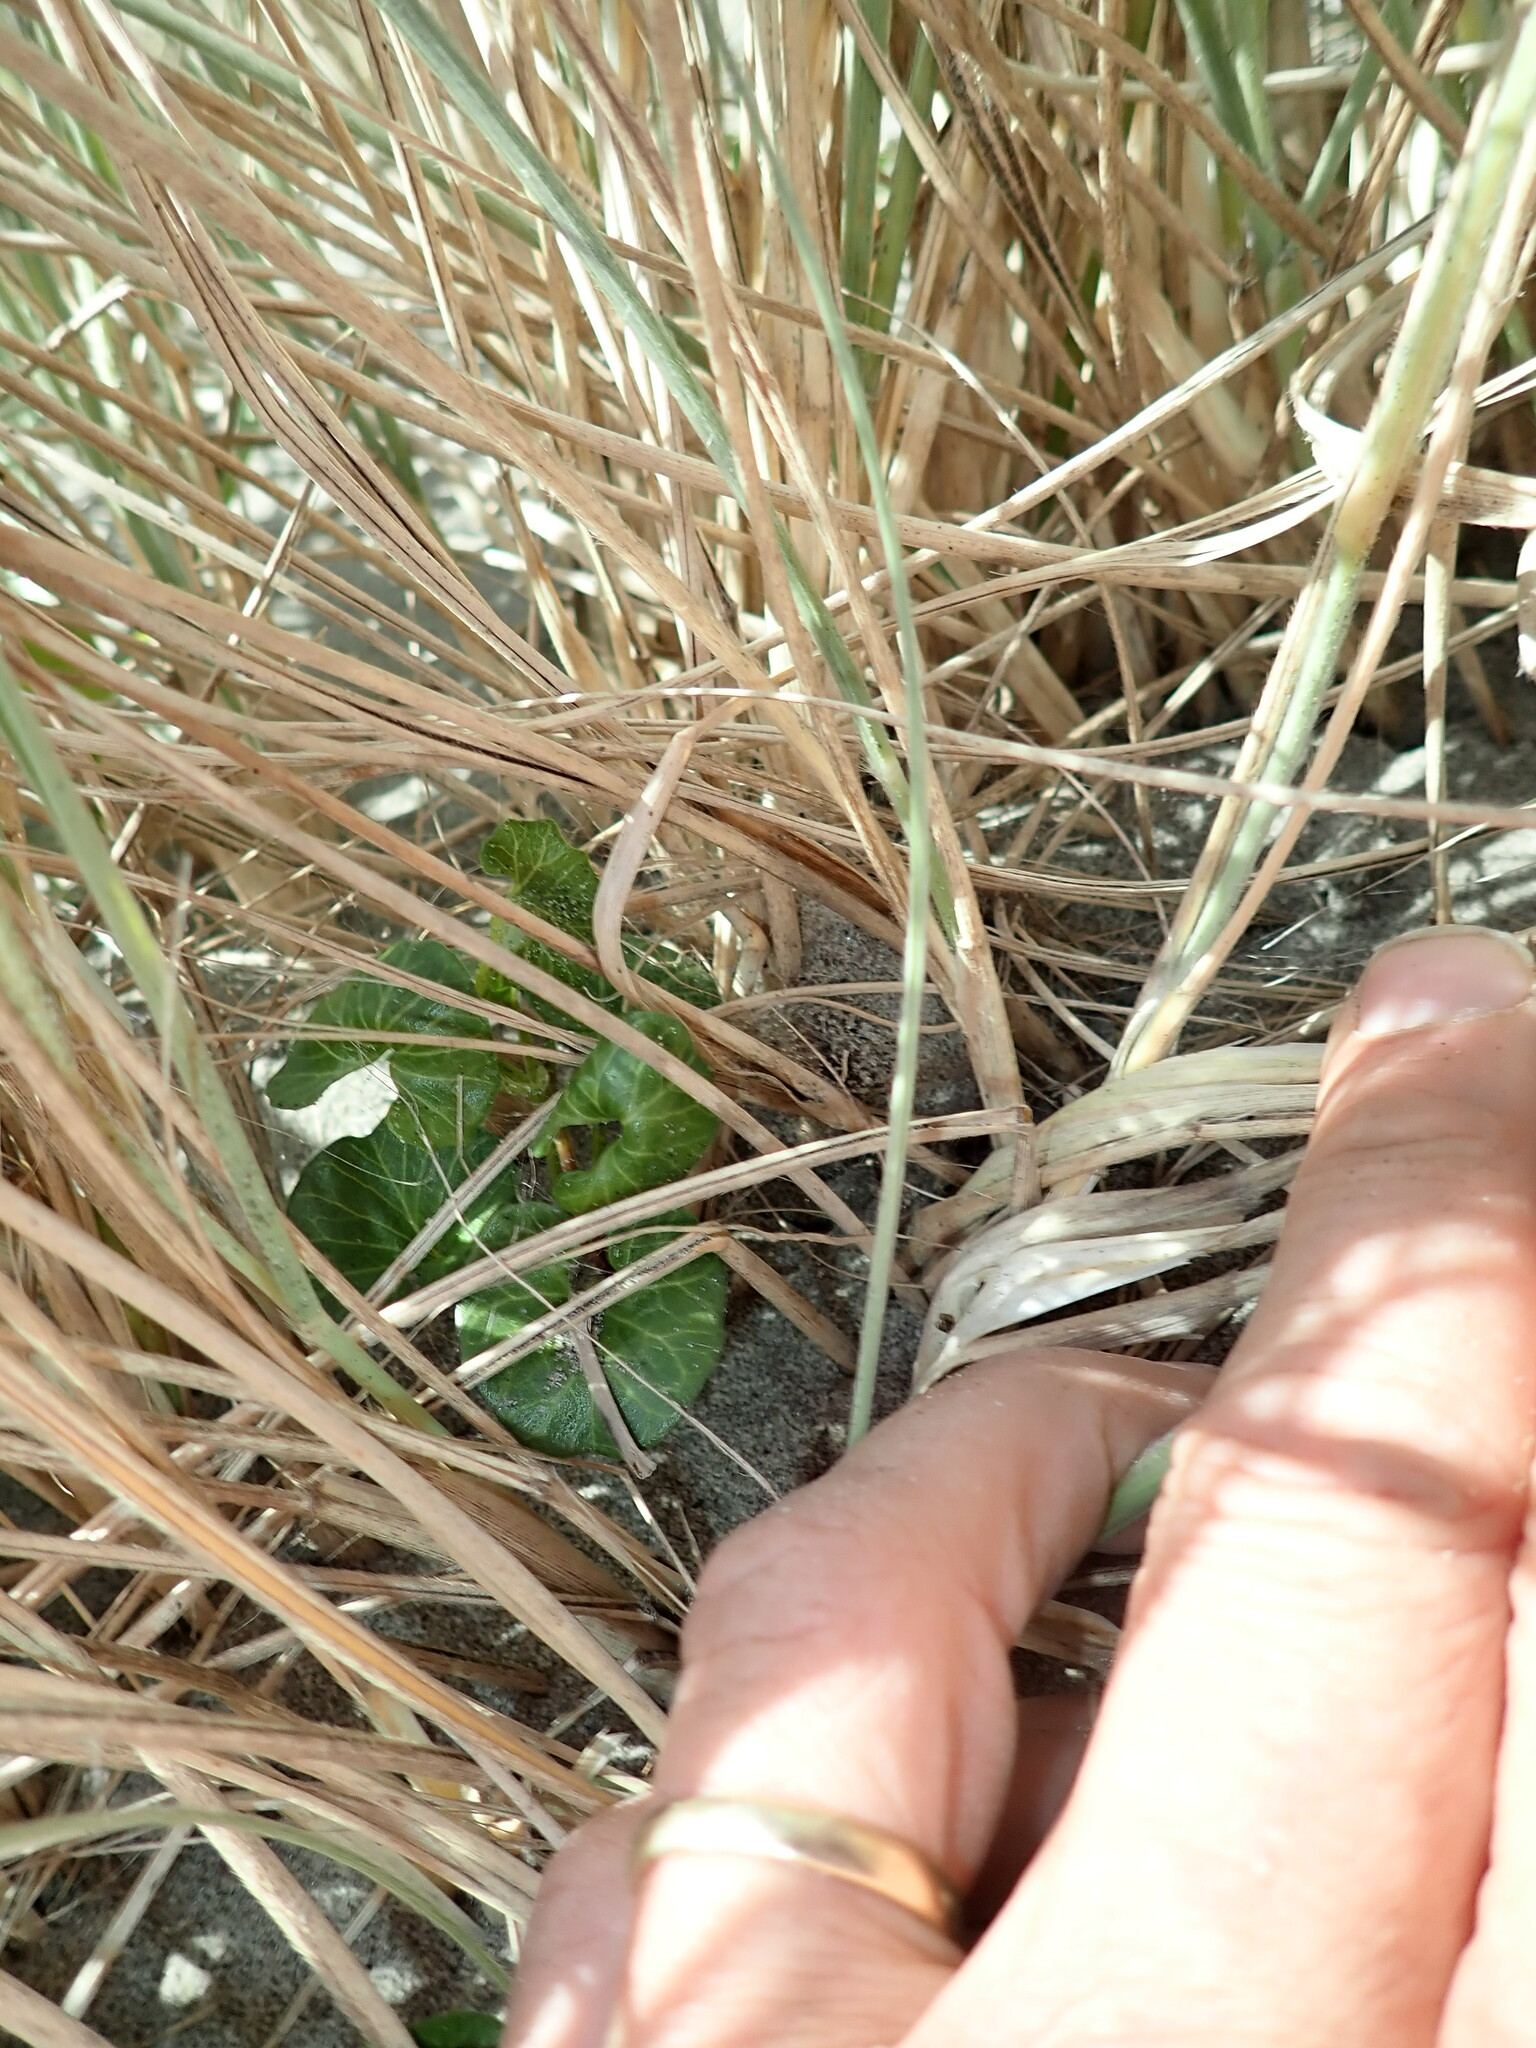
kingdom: Animalia
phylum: Arthropoda
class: Arachnida
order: Araneae
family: Theridiidae
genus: Latrodectus
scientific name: Latrodectus katipo
